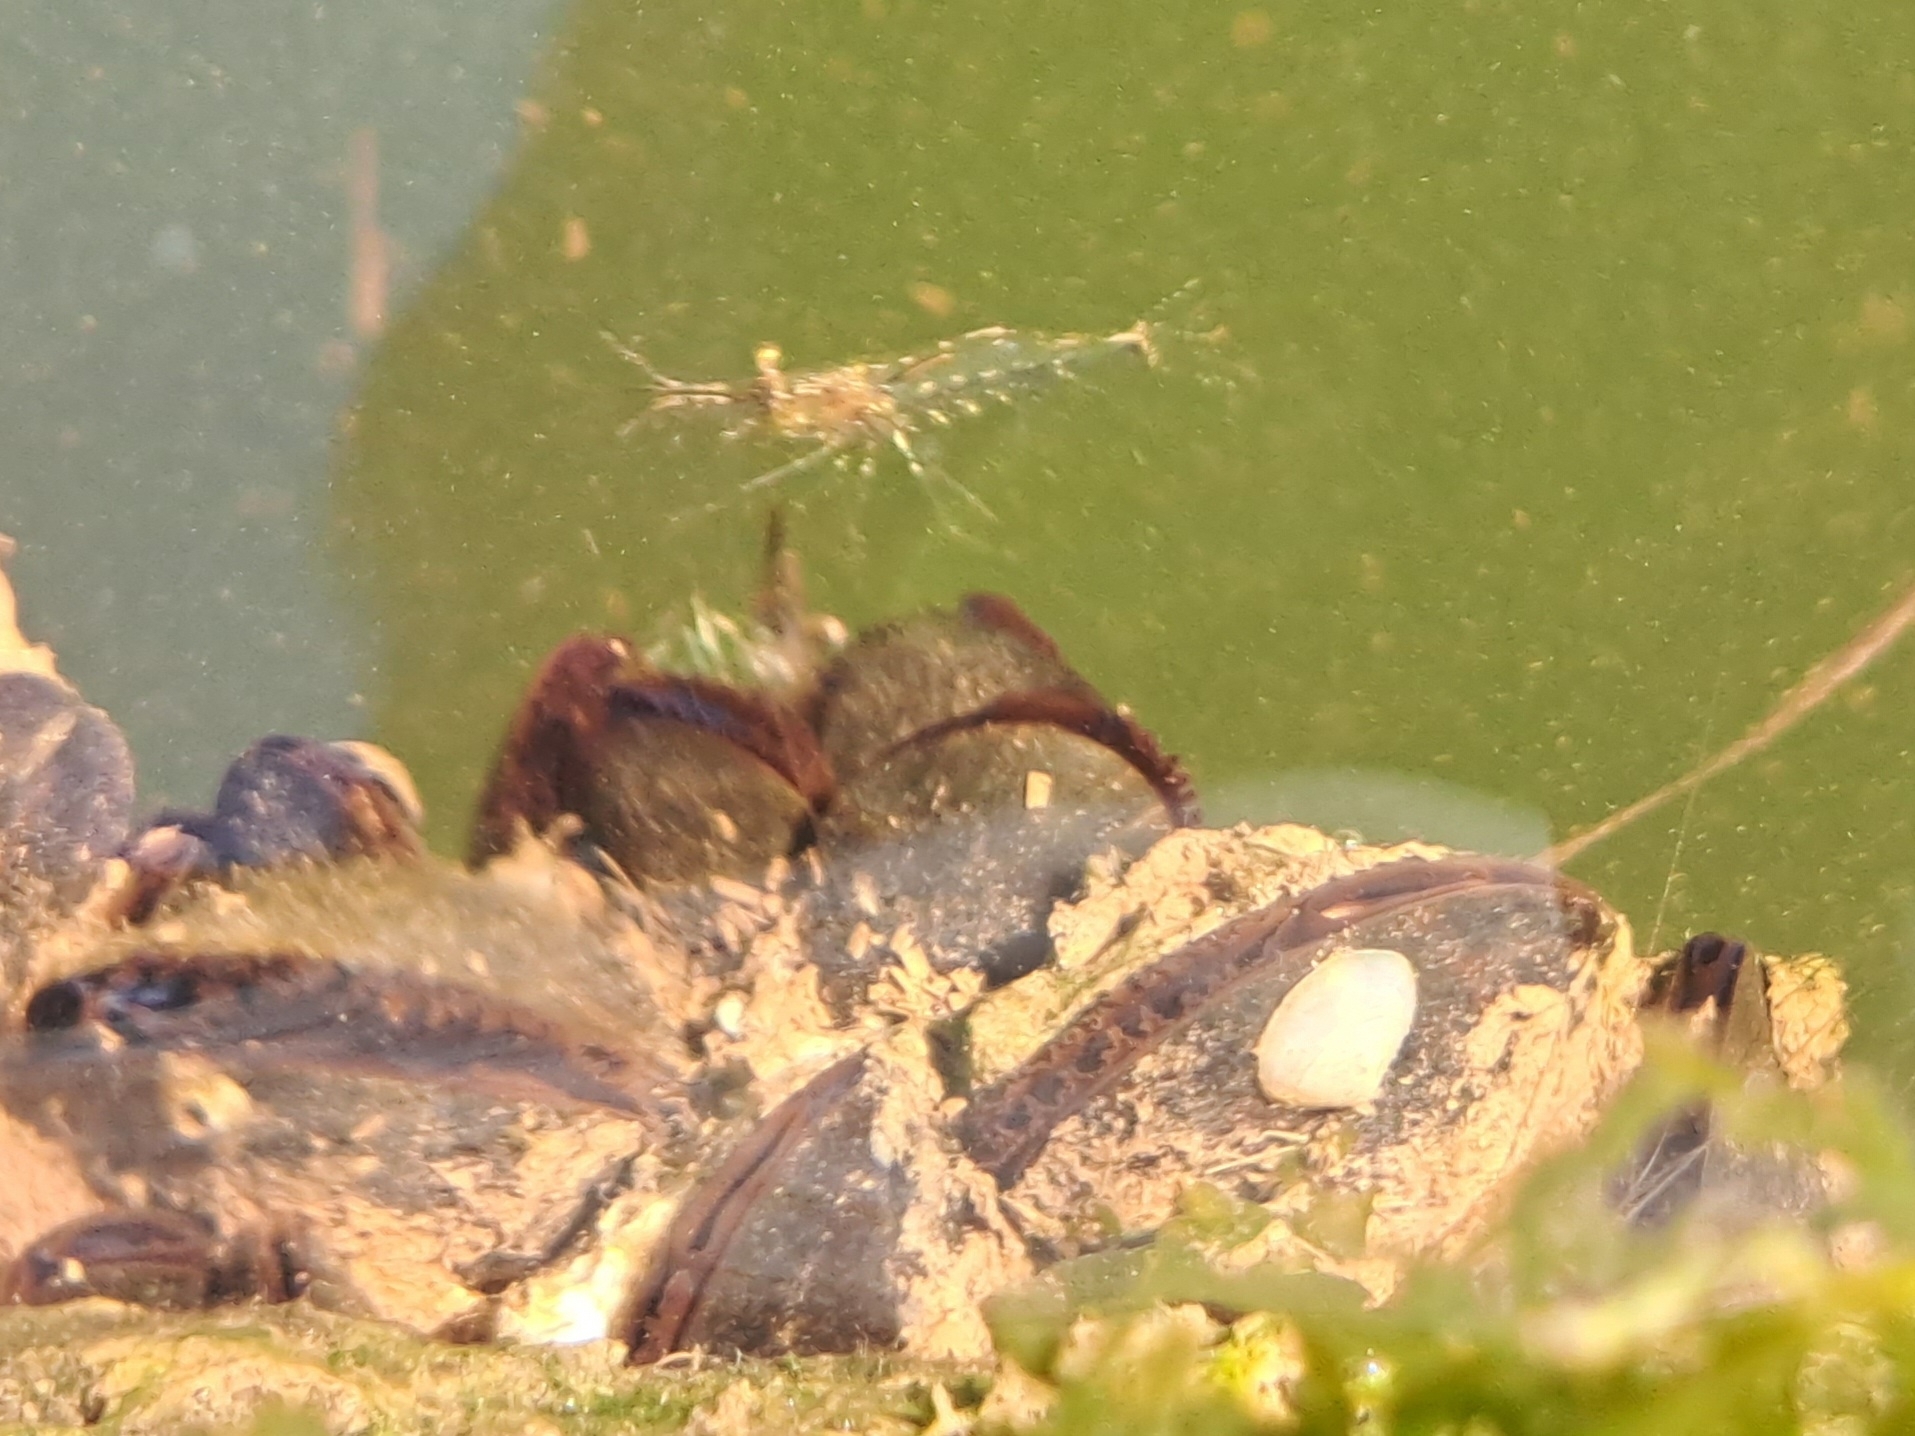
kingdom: Animalia
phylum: Mollusca
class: Bivalvia
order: Mytilida
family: Mytilidae
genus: Mytilus
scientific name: Mytilus
